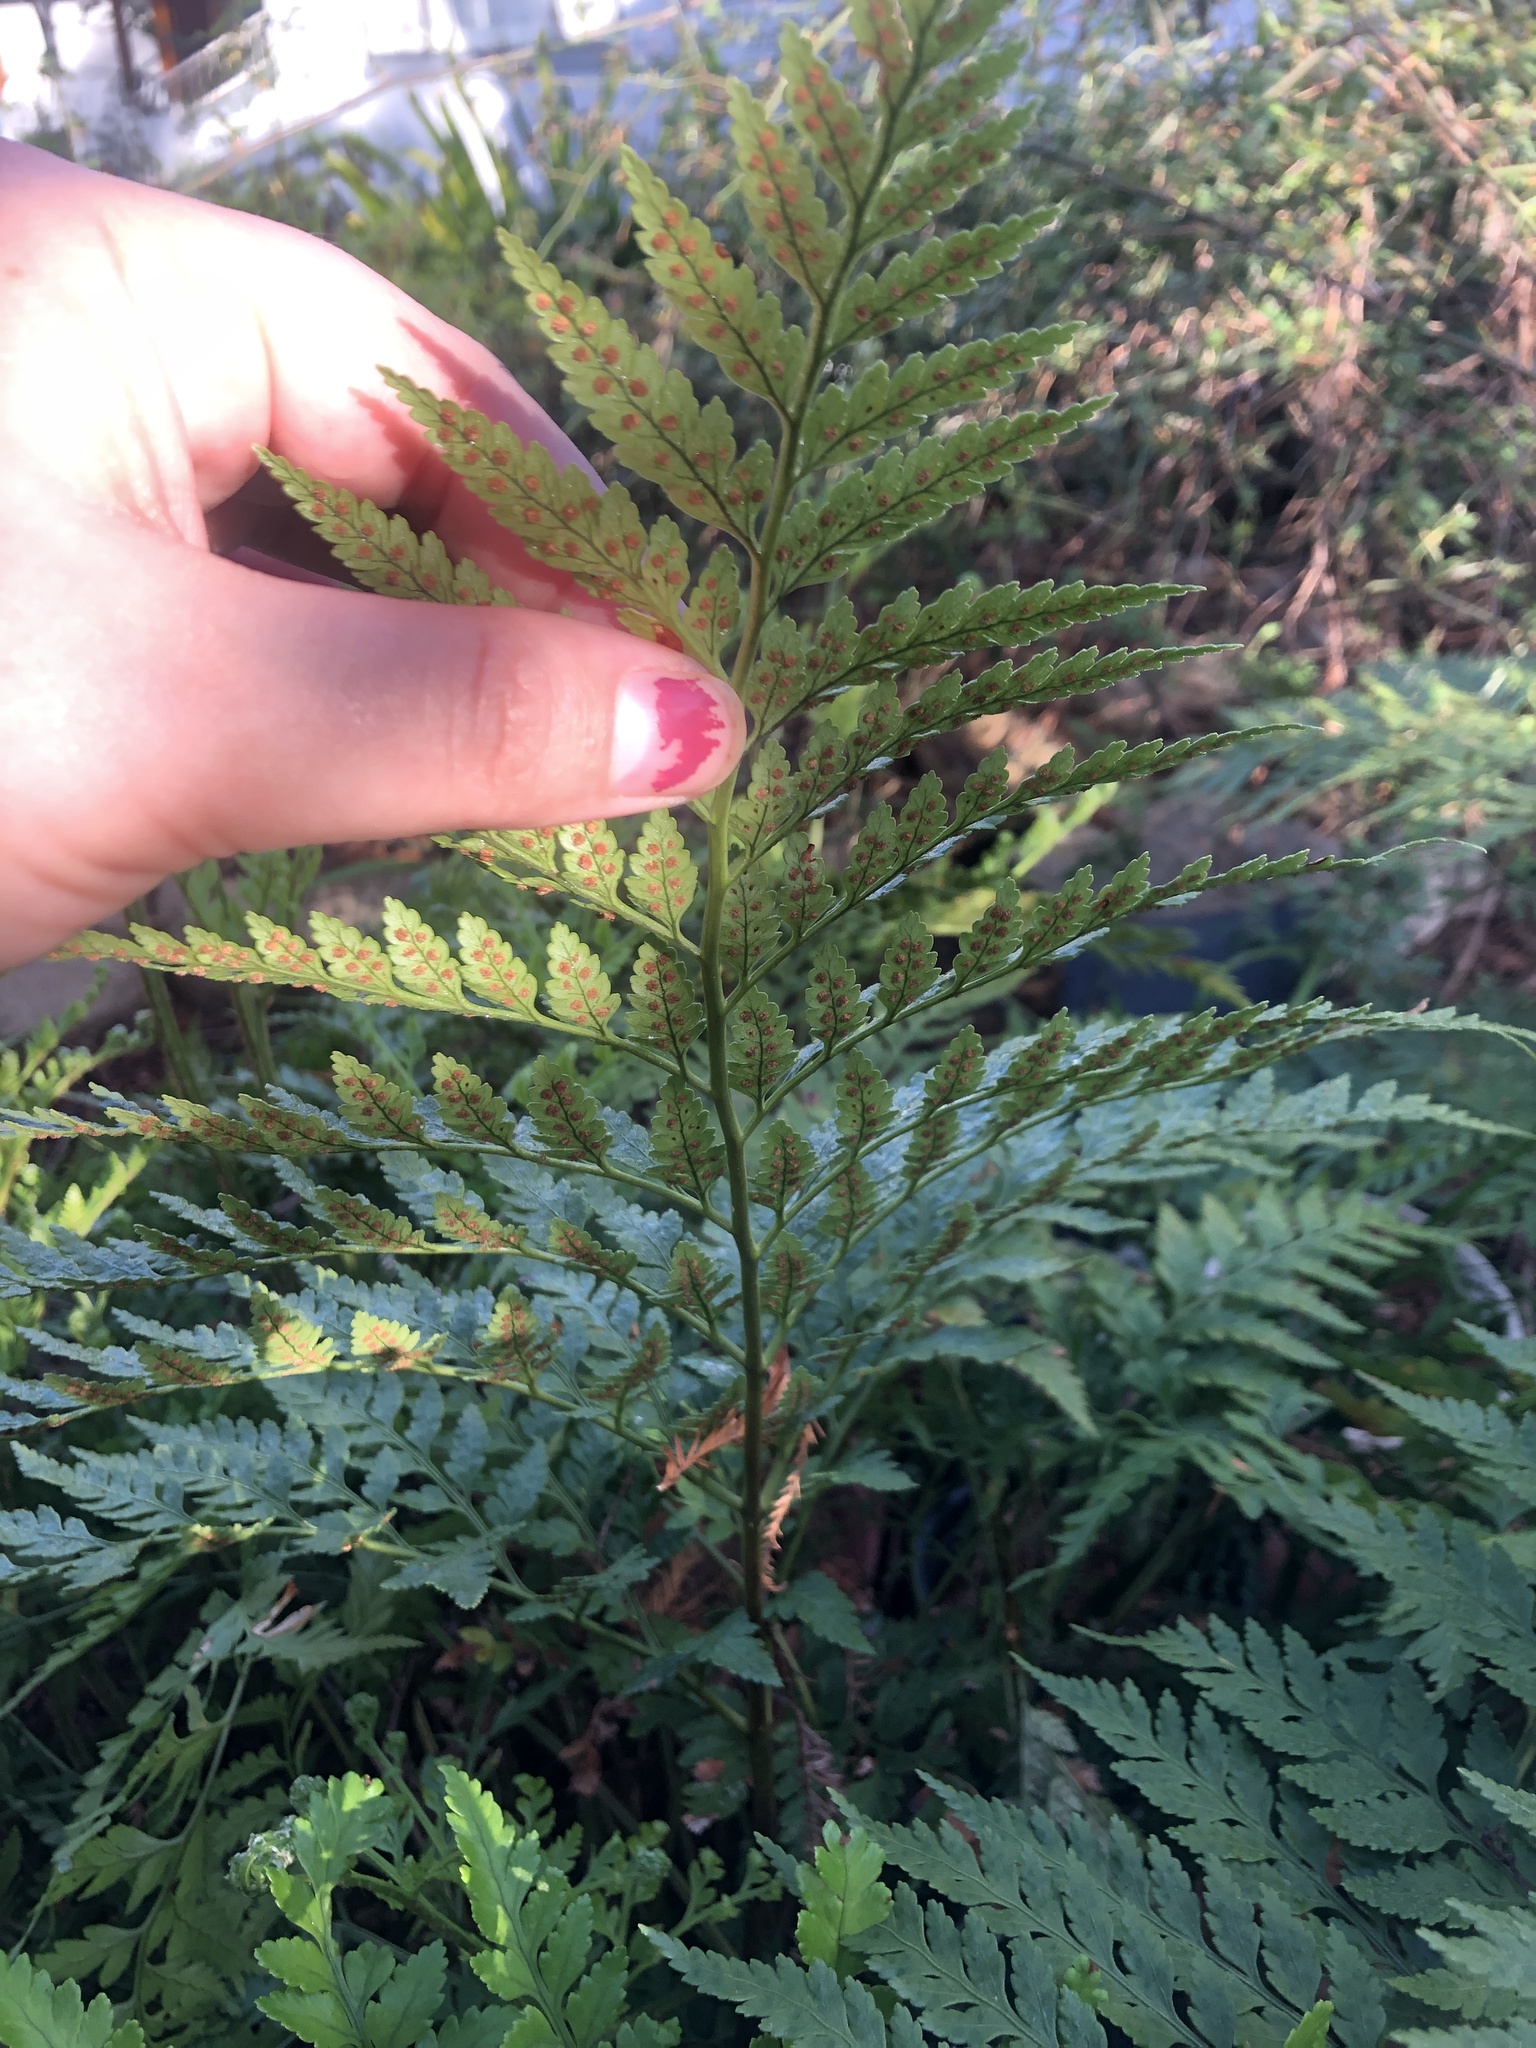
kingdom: Plantae
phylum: Tracheophyta
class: Polypodiopsida
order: Polypodiales
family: Dryopteridaceae
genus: Rumohra
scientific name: Rumohra adiantiformis
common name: Leather fern
